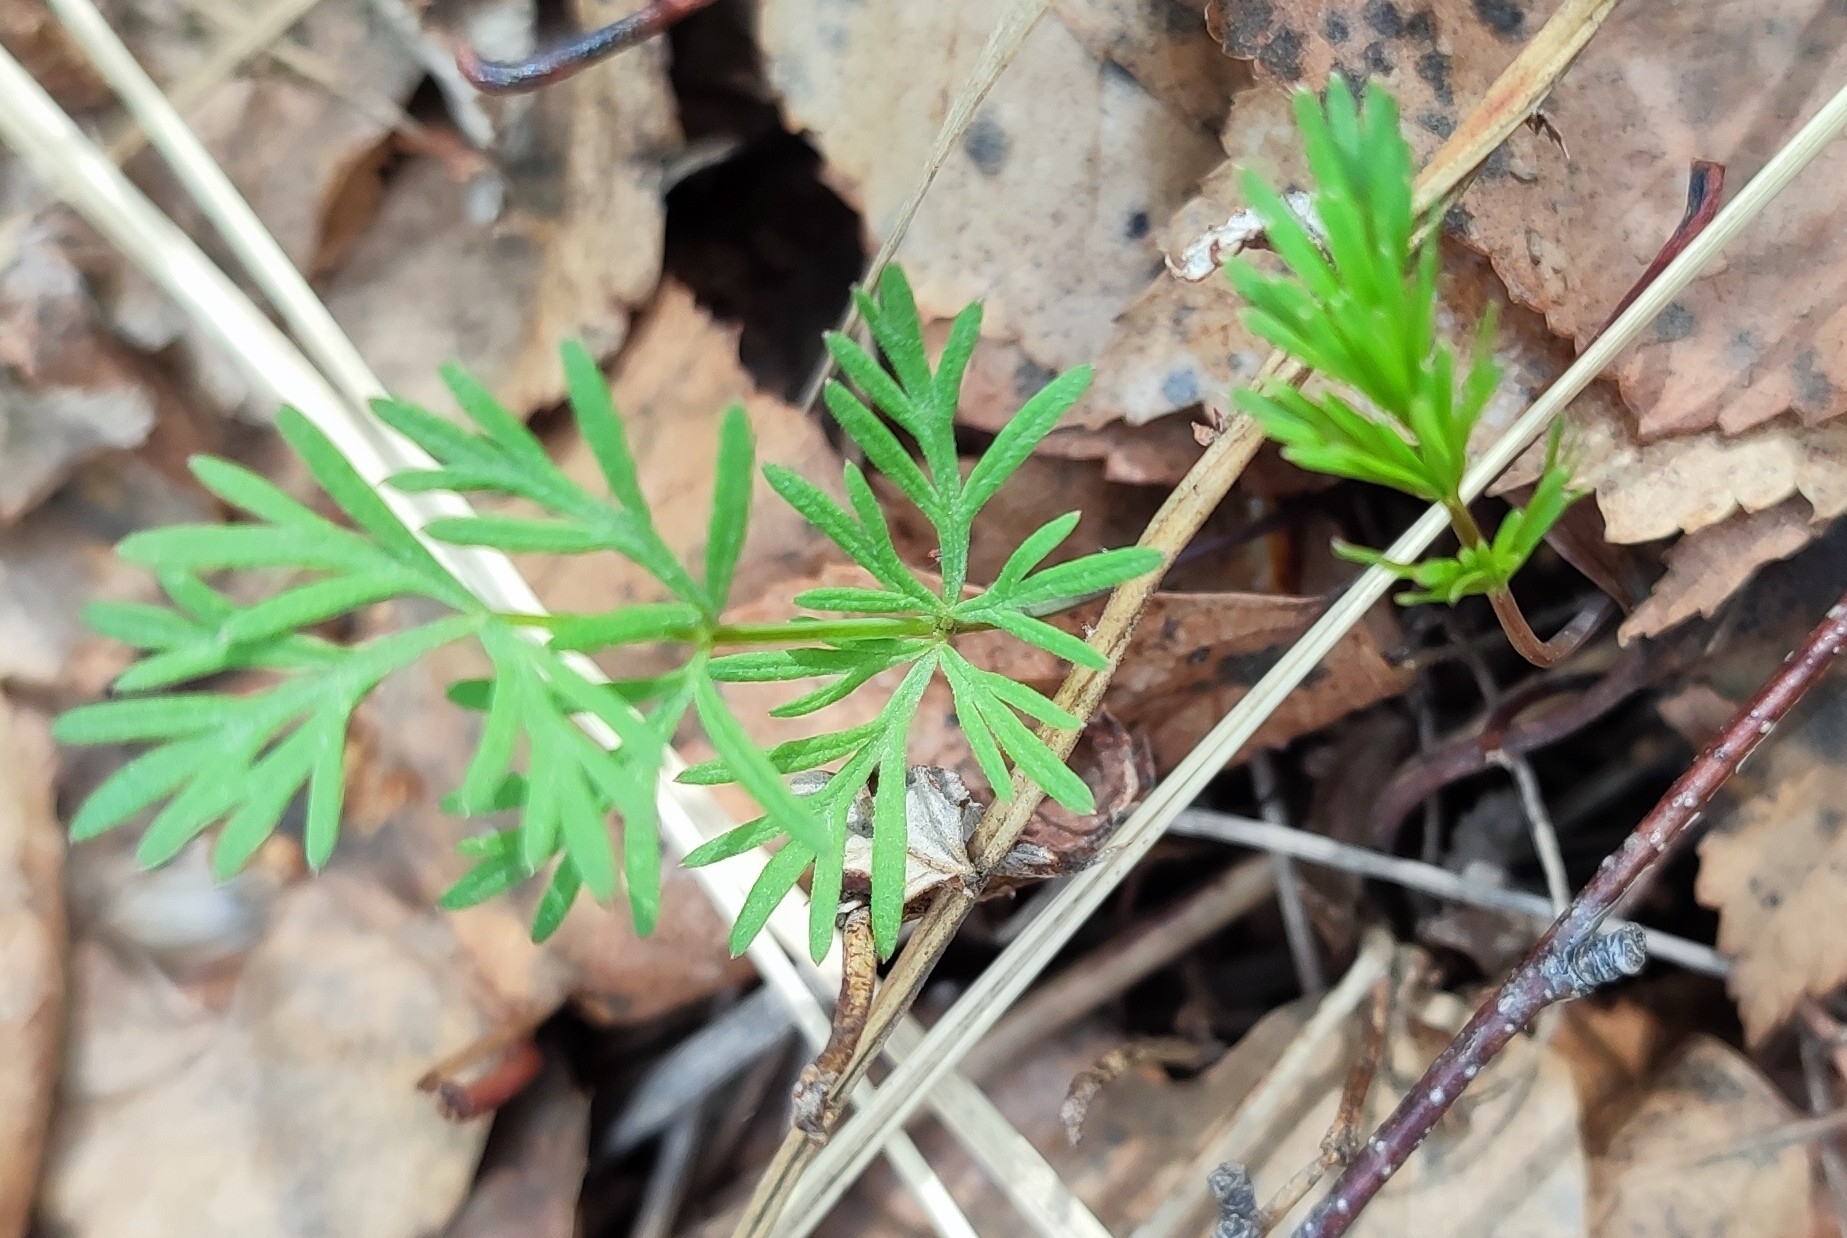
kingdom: Plantae
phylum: Tracheophyta
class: Magnoliopsida
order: Apiales
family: Apiaceae
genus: Kadenia
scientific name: Kadenia dubia
